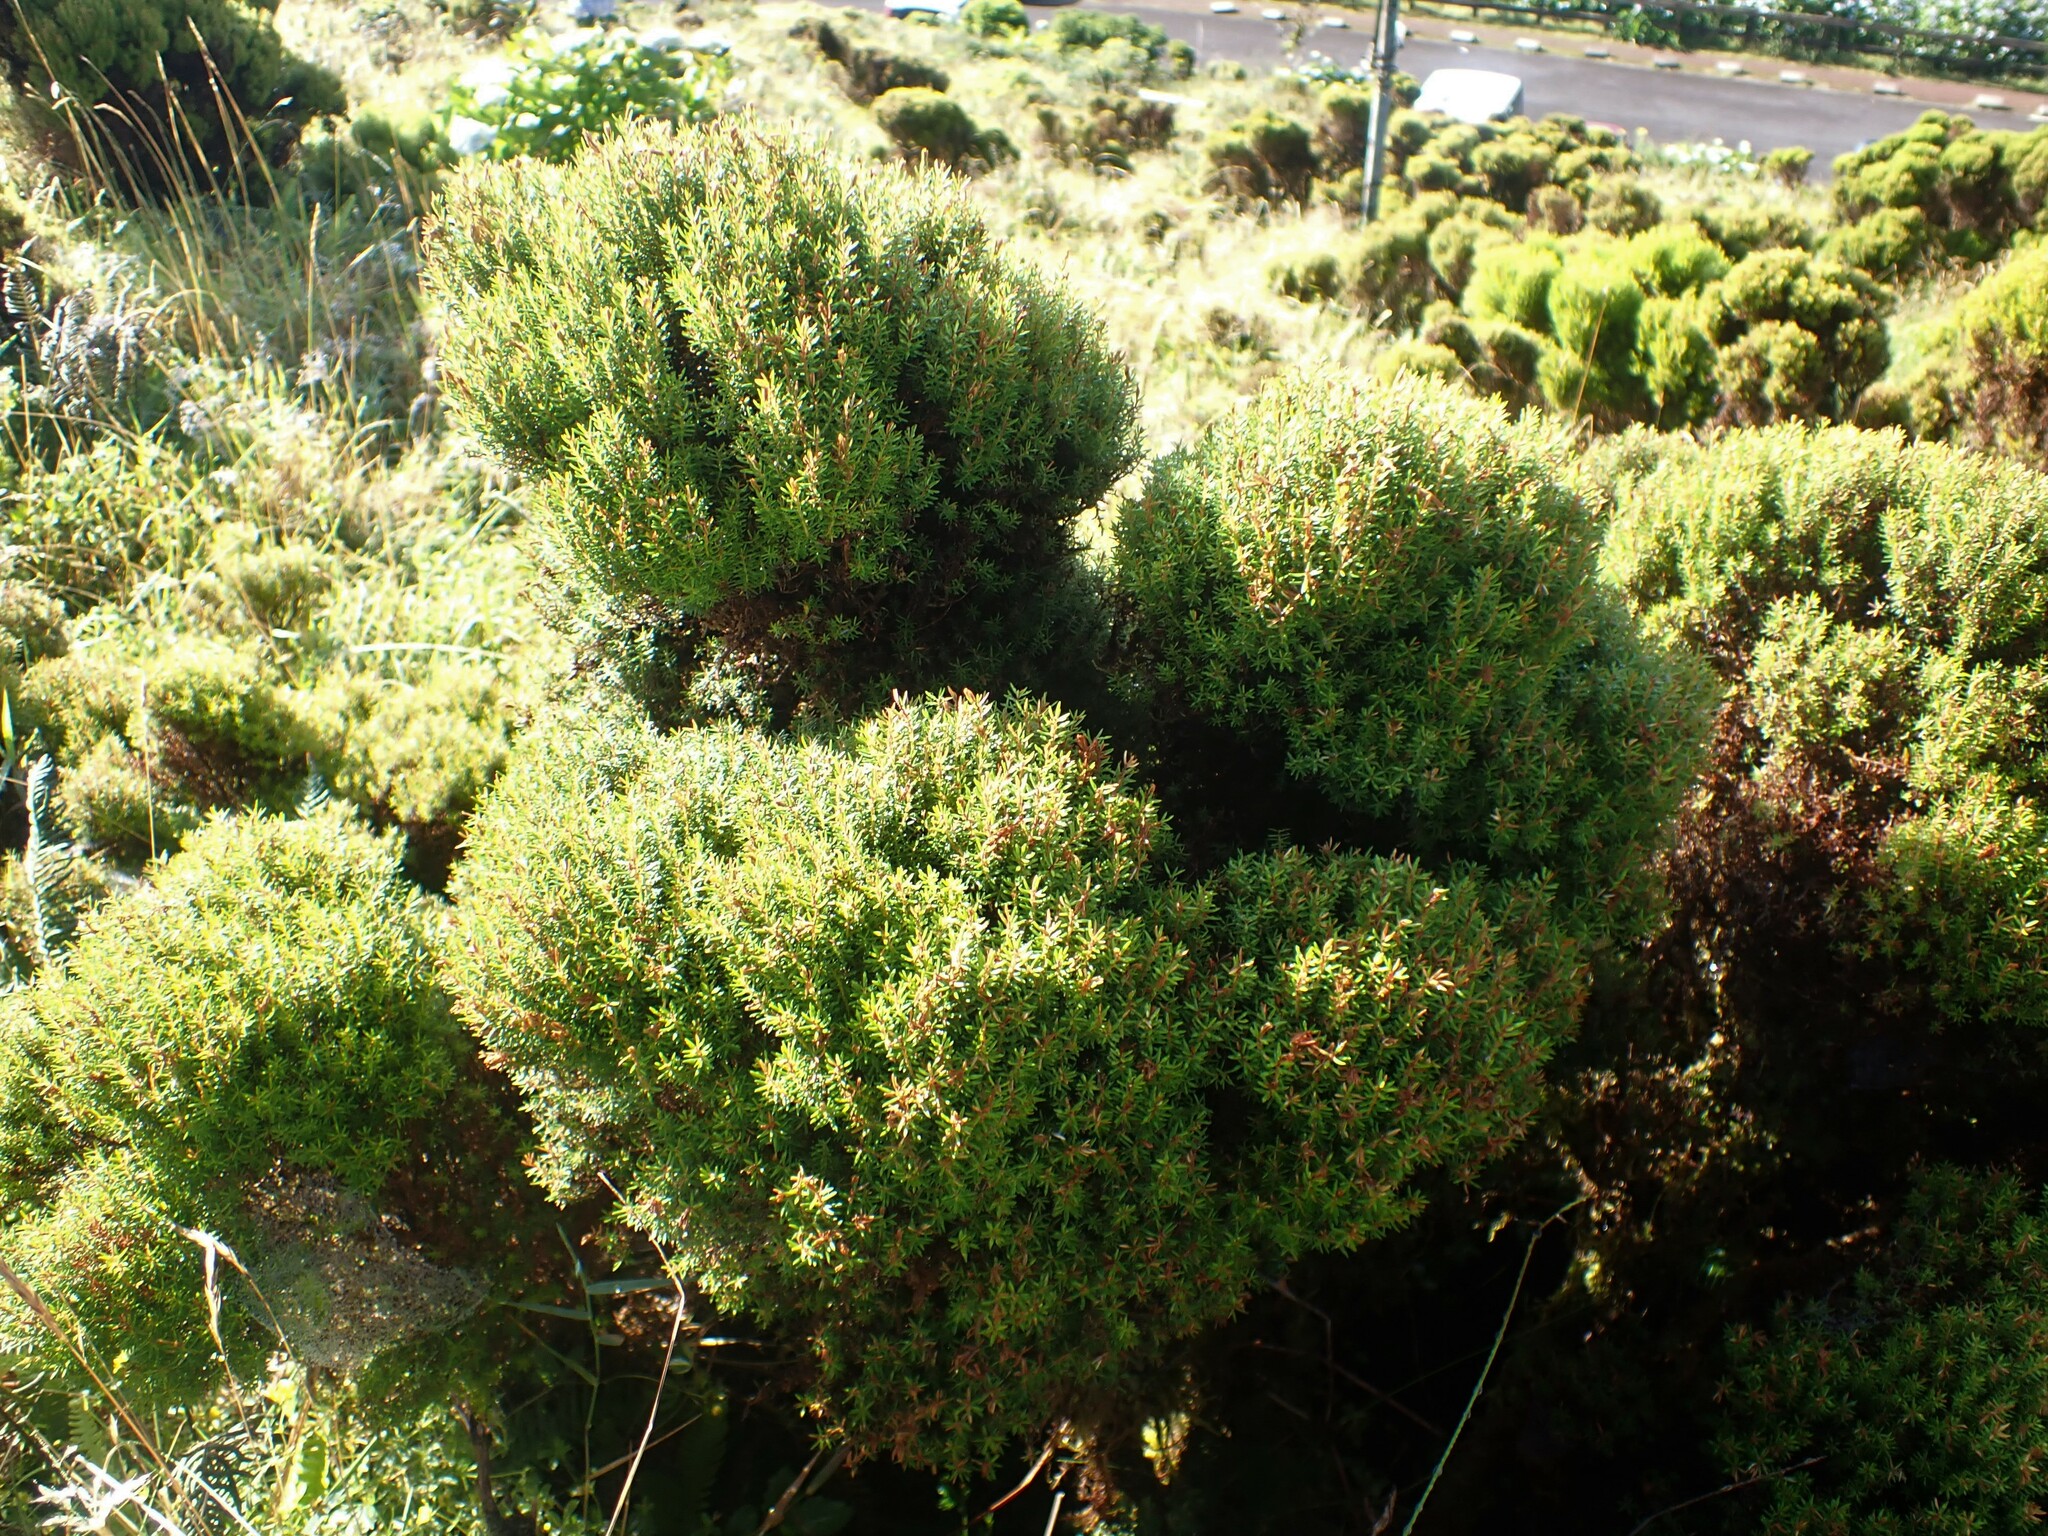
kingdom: Plantae
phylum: Tracheophyta
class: Magnoliopsida
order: Ericales
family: Ericaceae
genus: Erica
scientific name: Erica azorica
